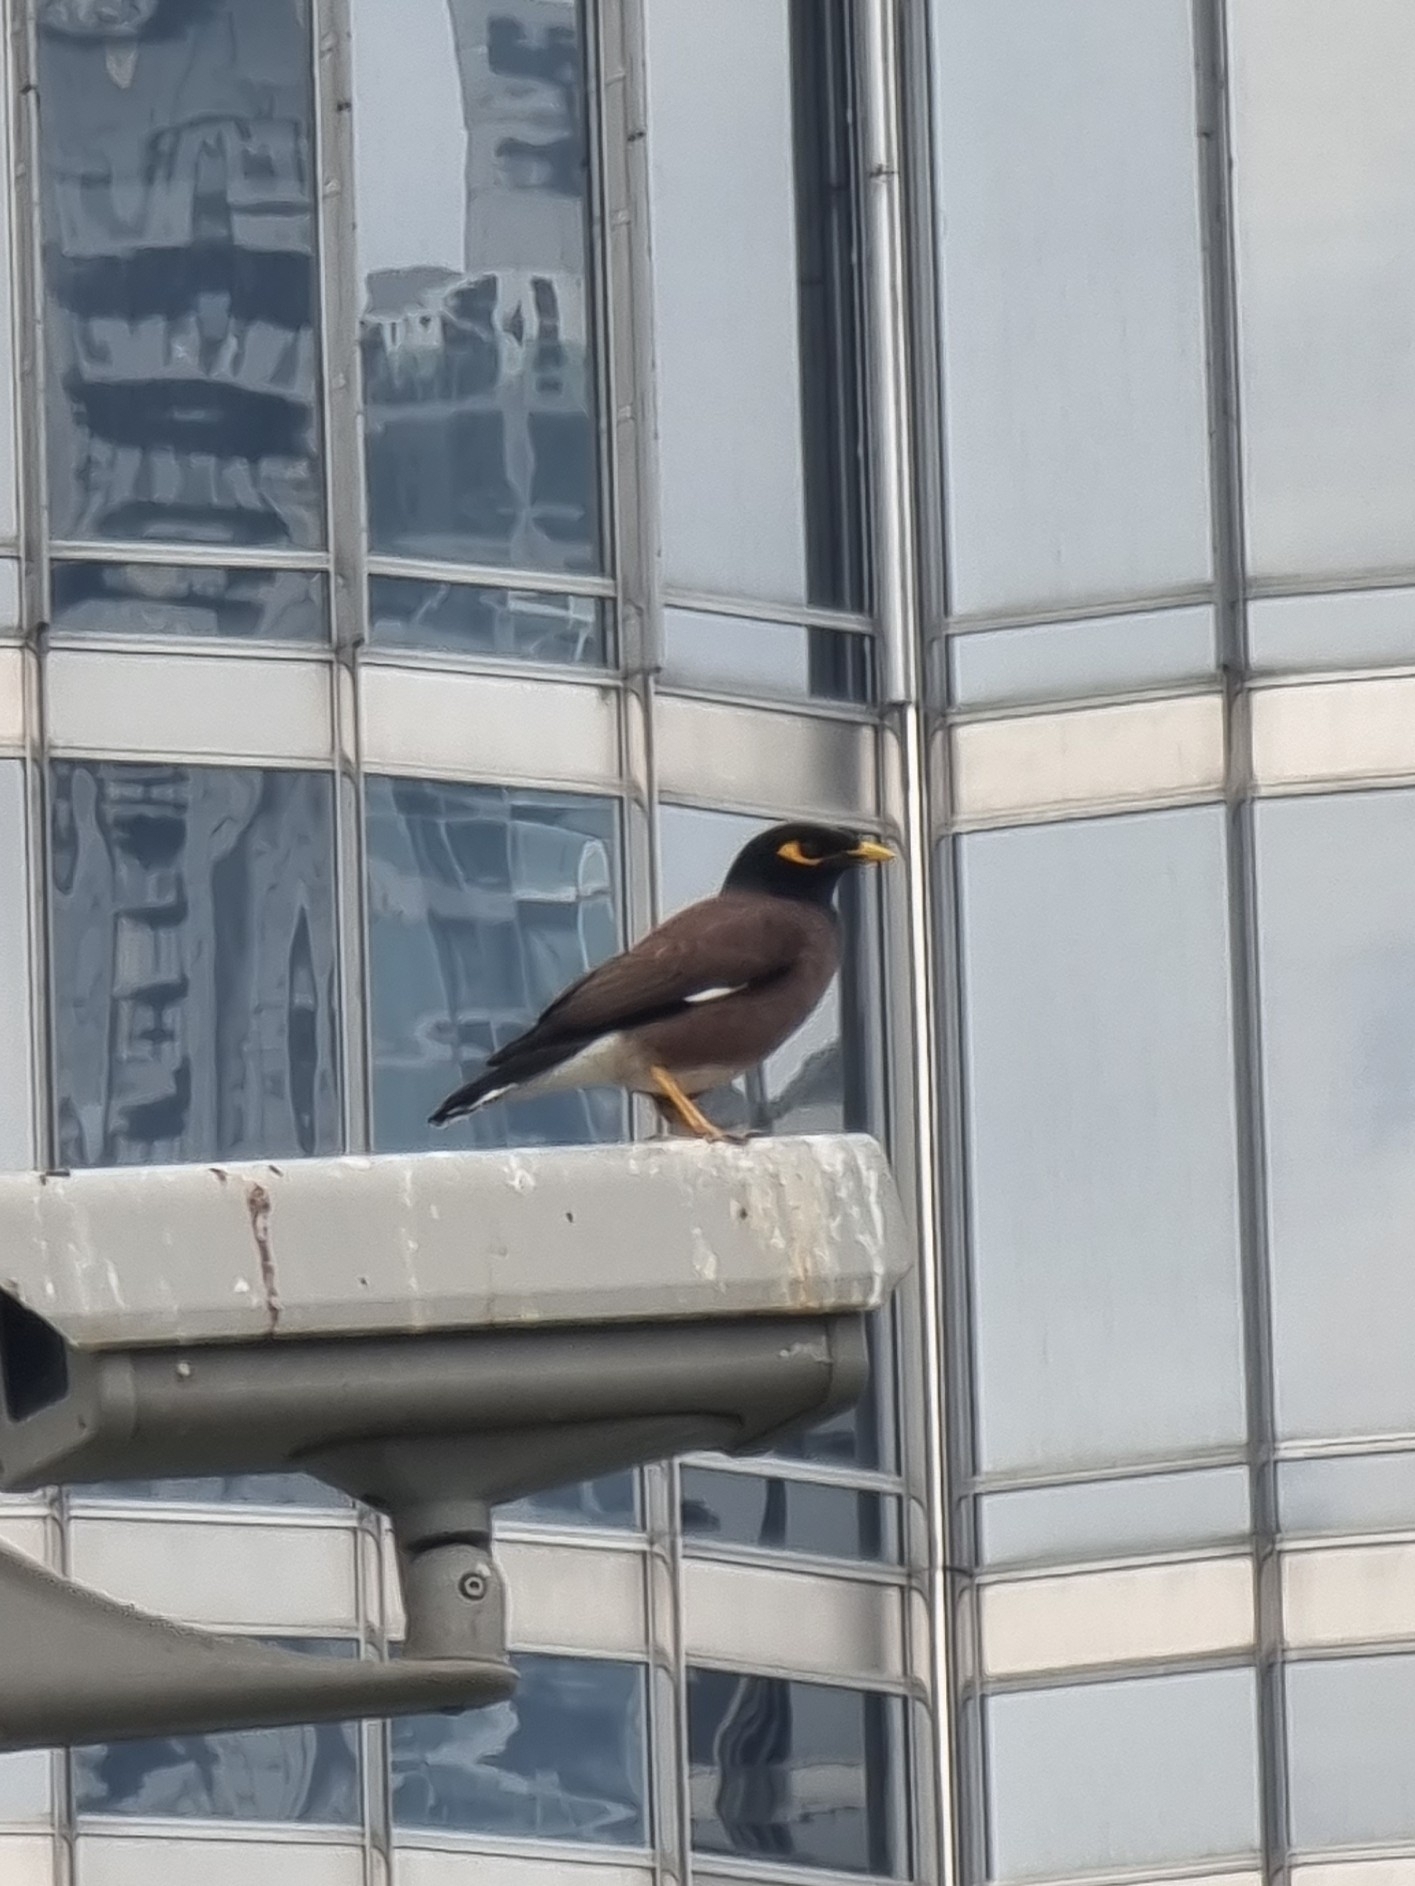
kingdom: Animalia
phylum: Chordata
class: Aves
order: Passeriformes
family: Sturnidae
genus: Acridotheres
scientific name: Acridotheres tristis
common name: Common myna
